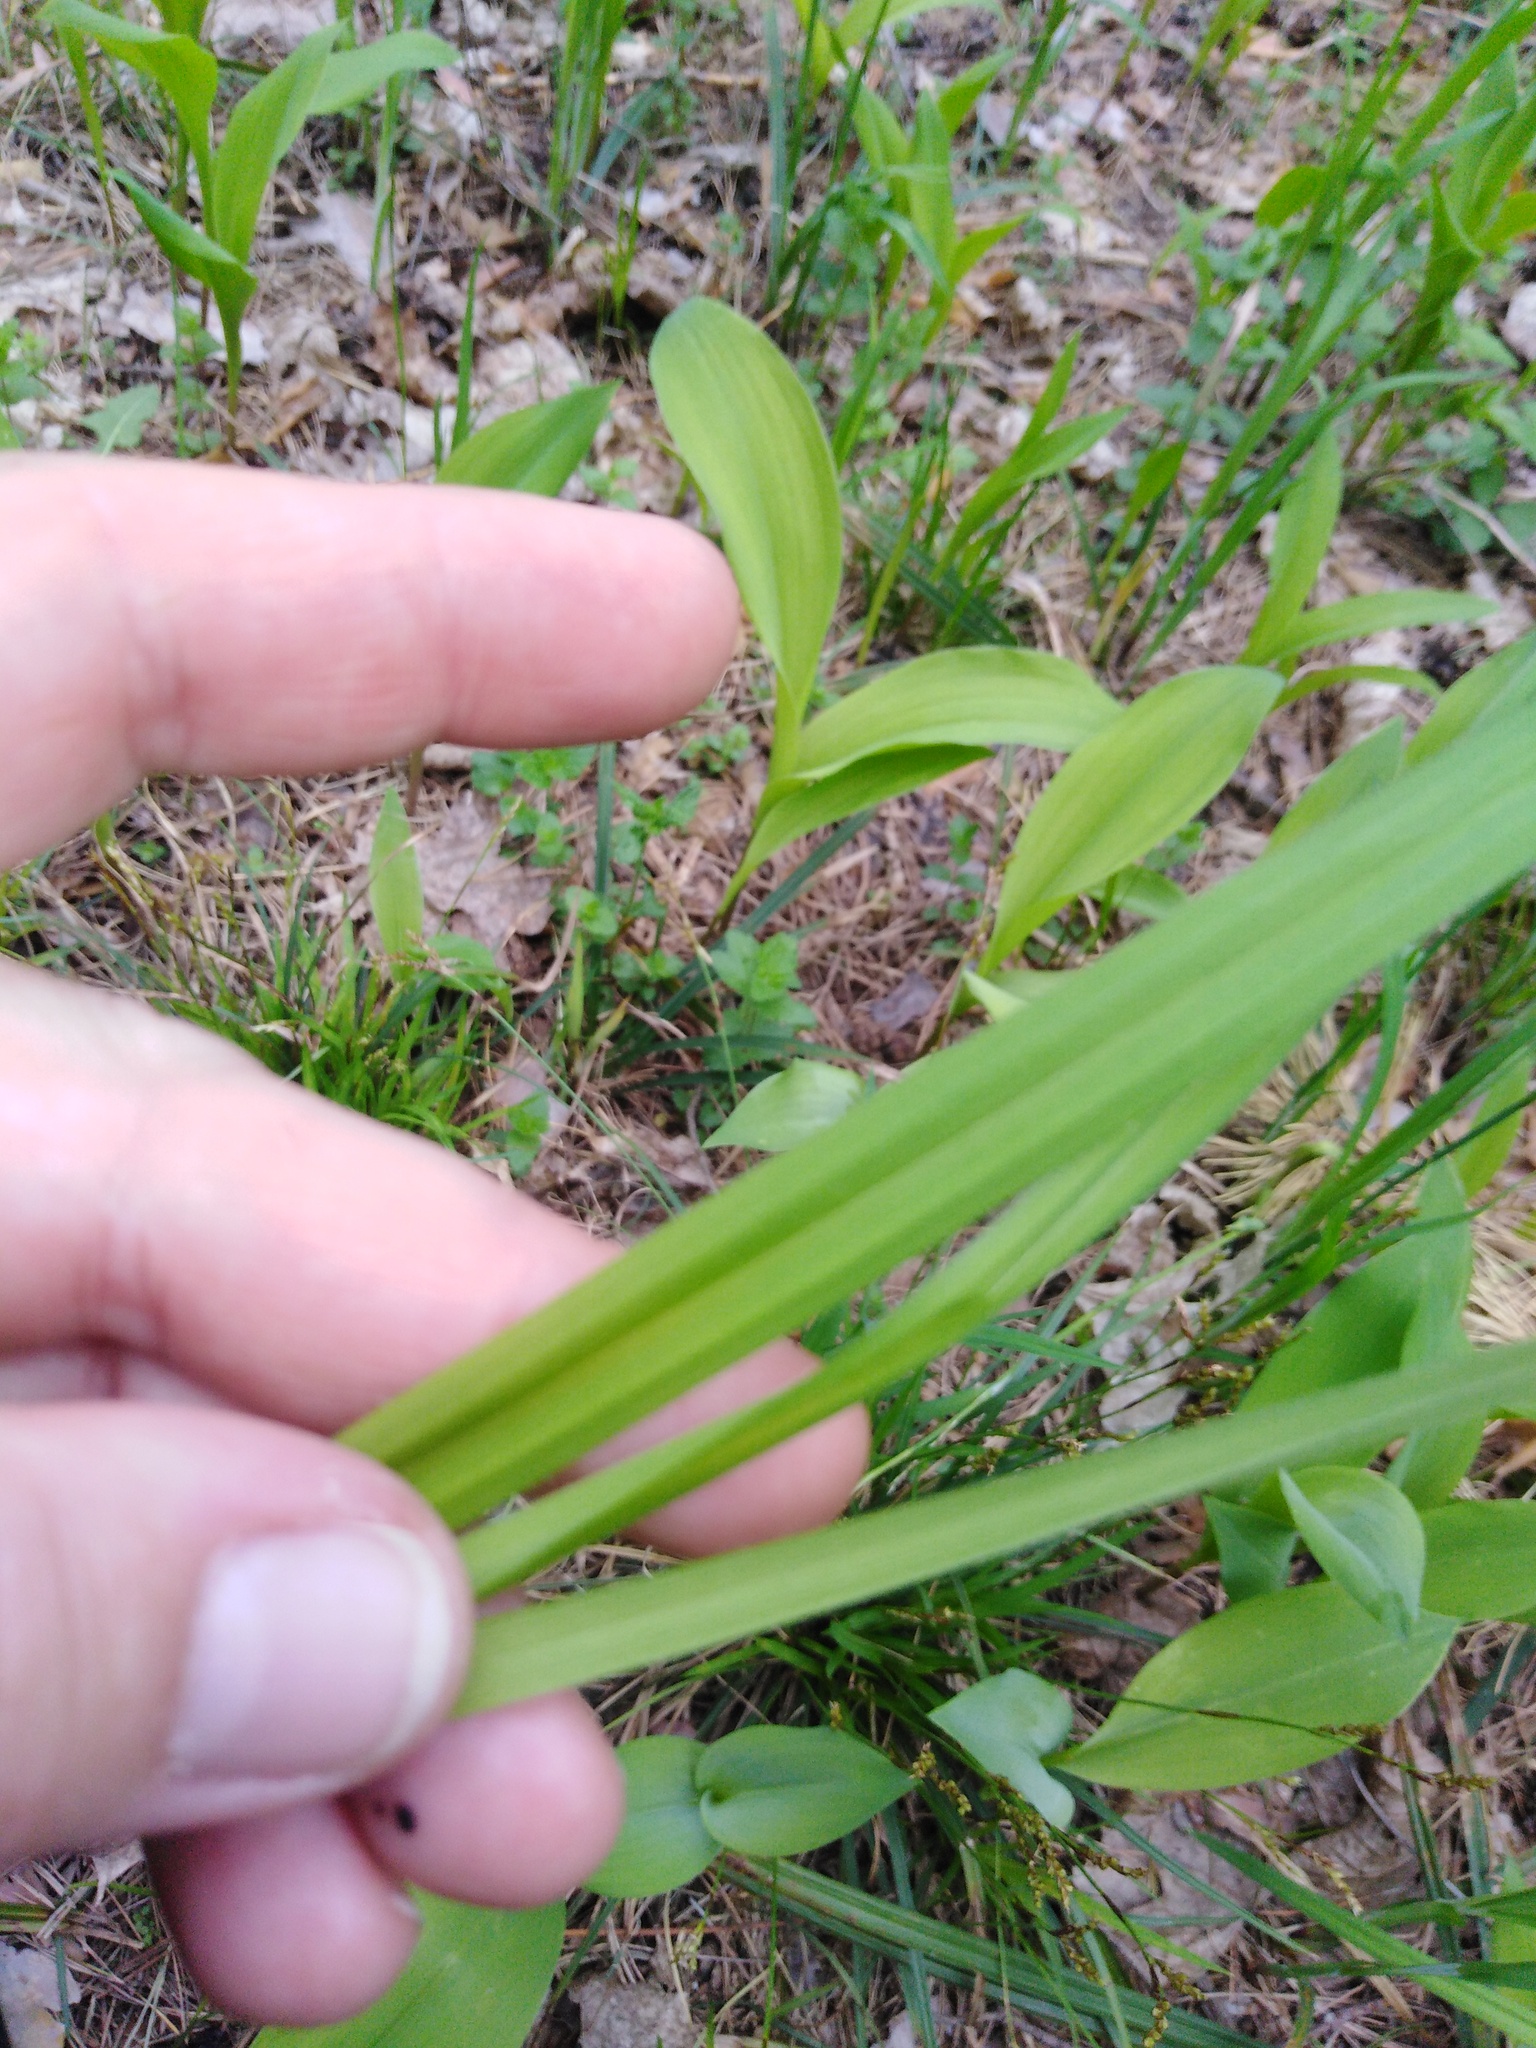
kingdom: Plantae
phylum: Tracheophyta
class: Liliopsida
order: Poales
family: Cyperaceae
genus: Carex
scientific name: Carex pilosa
